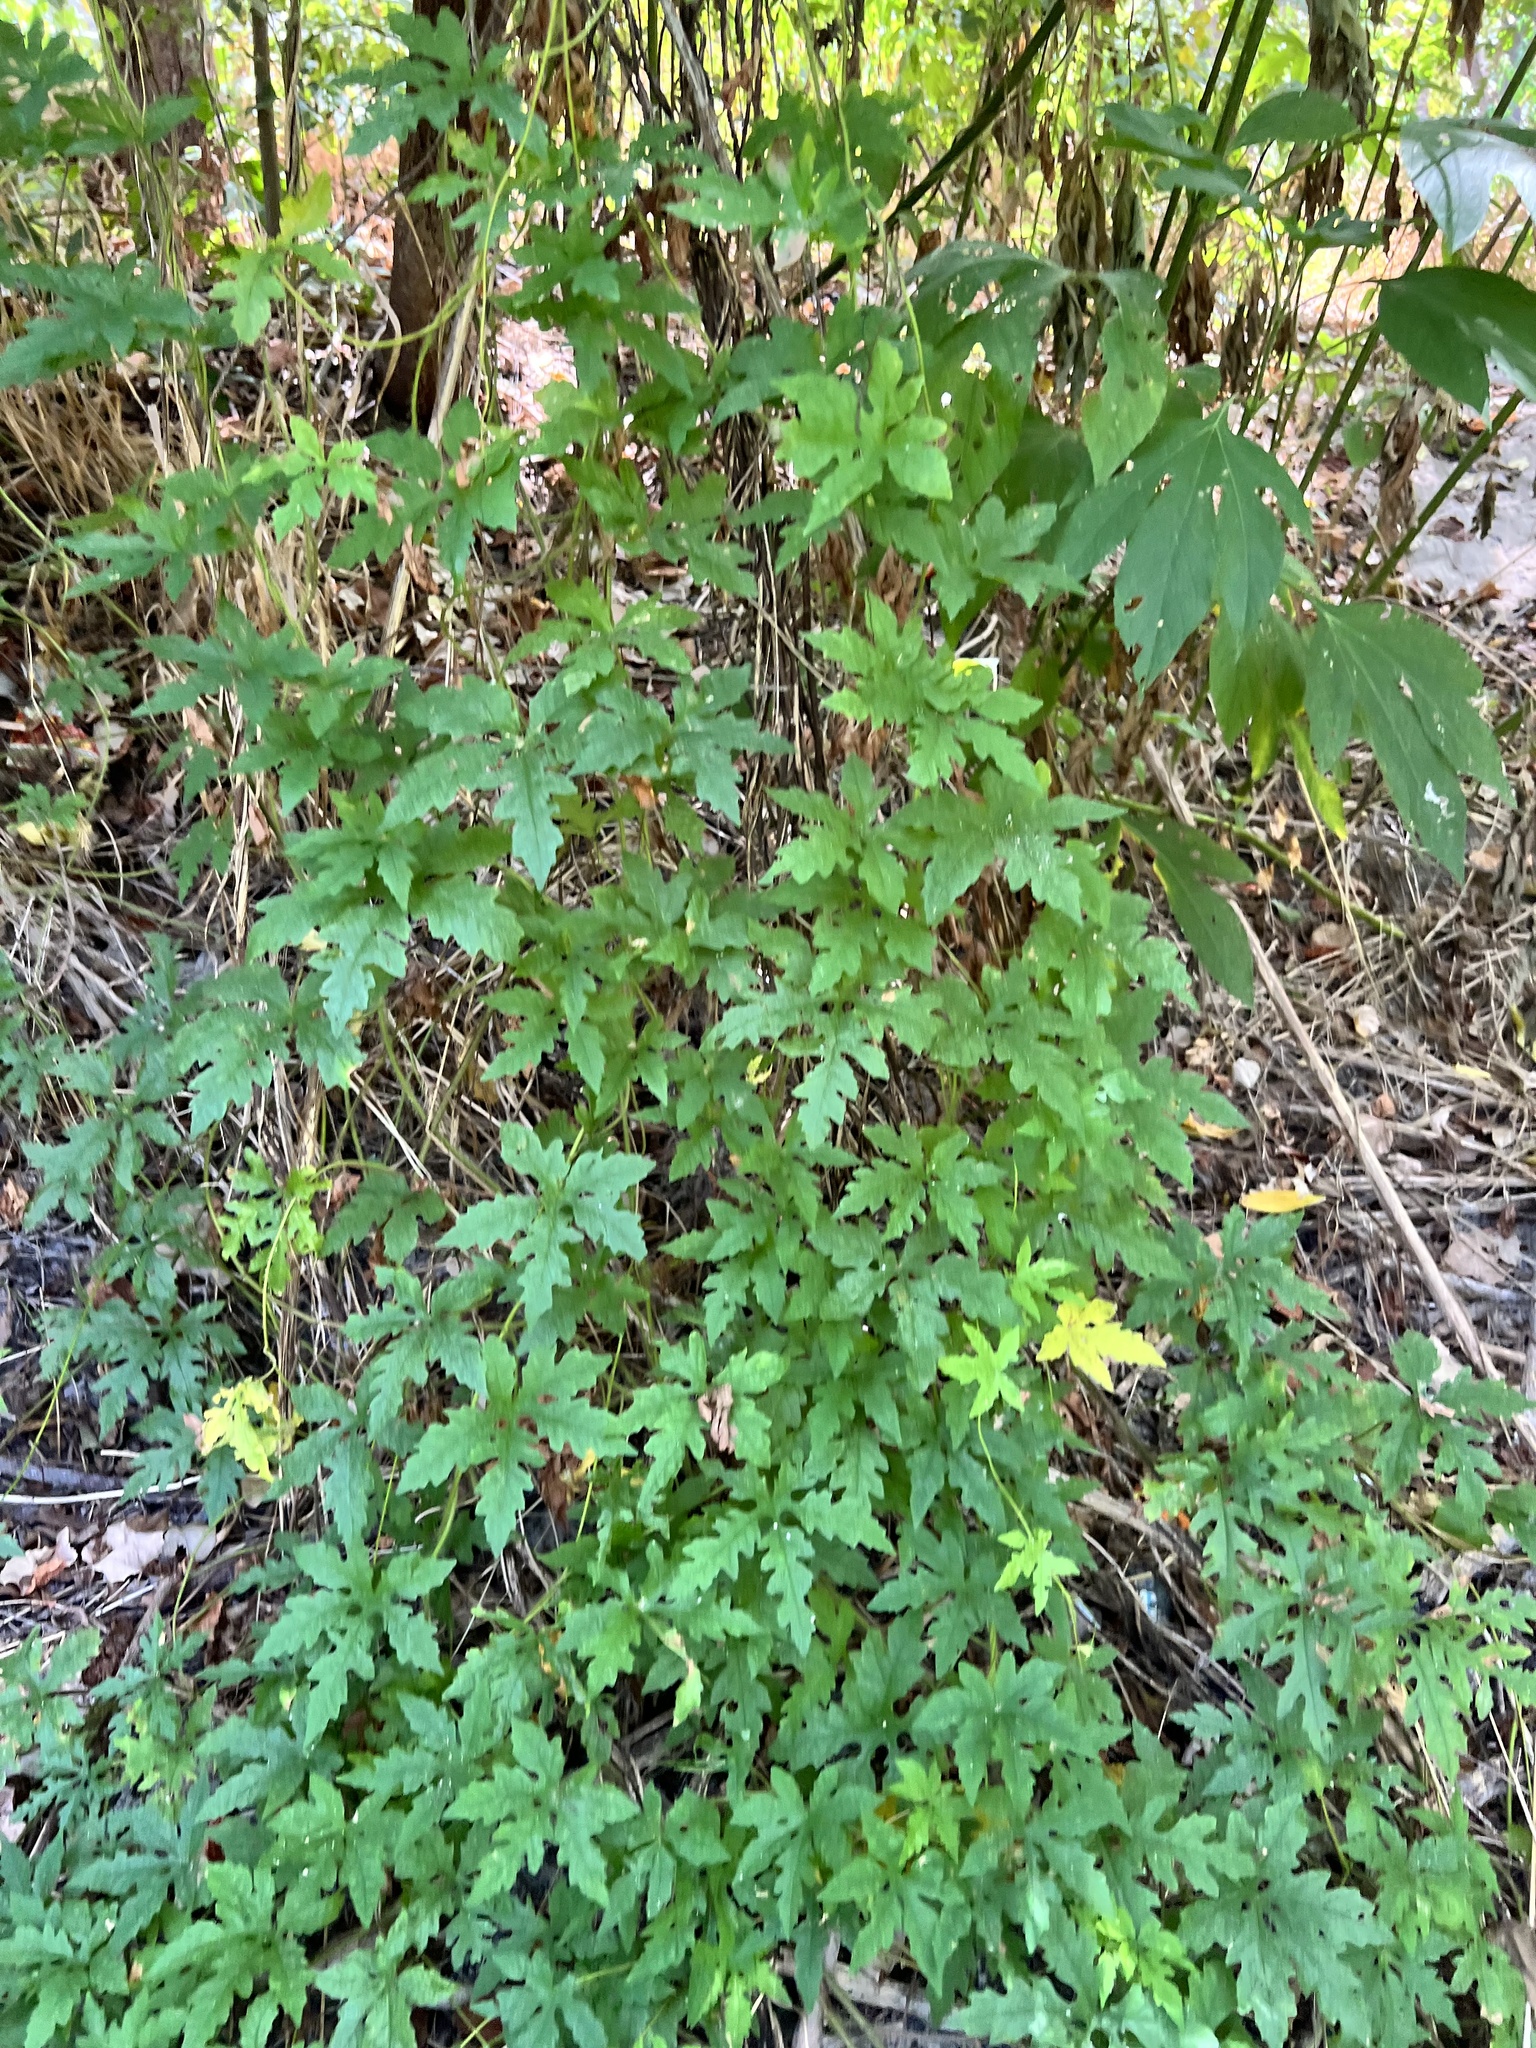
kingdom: Plantae
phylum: Tracheophyta
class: Magnoliopsida
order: Solanales
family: Convolvulaceae
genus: Distimake
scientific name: Distimake dissectus
